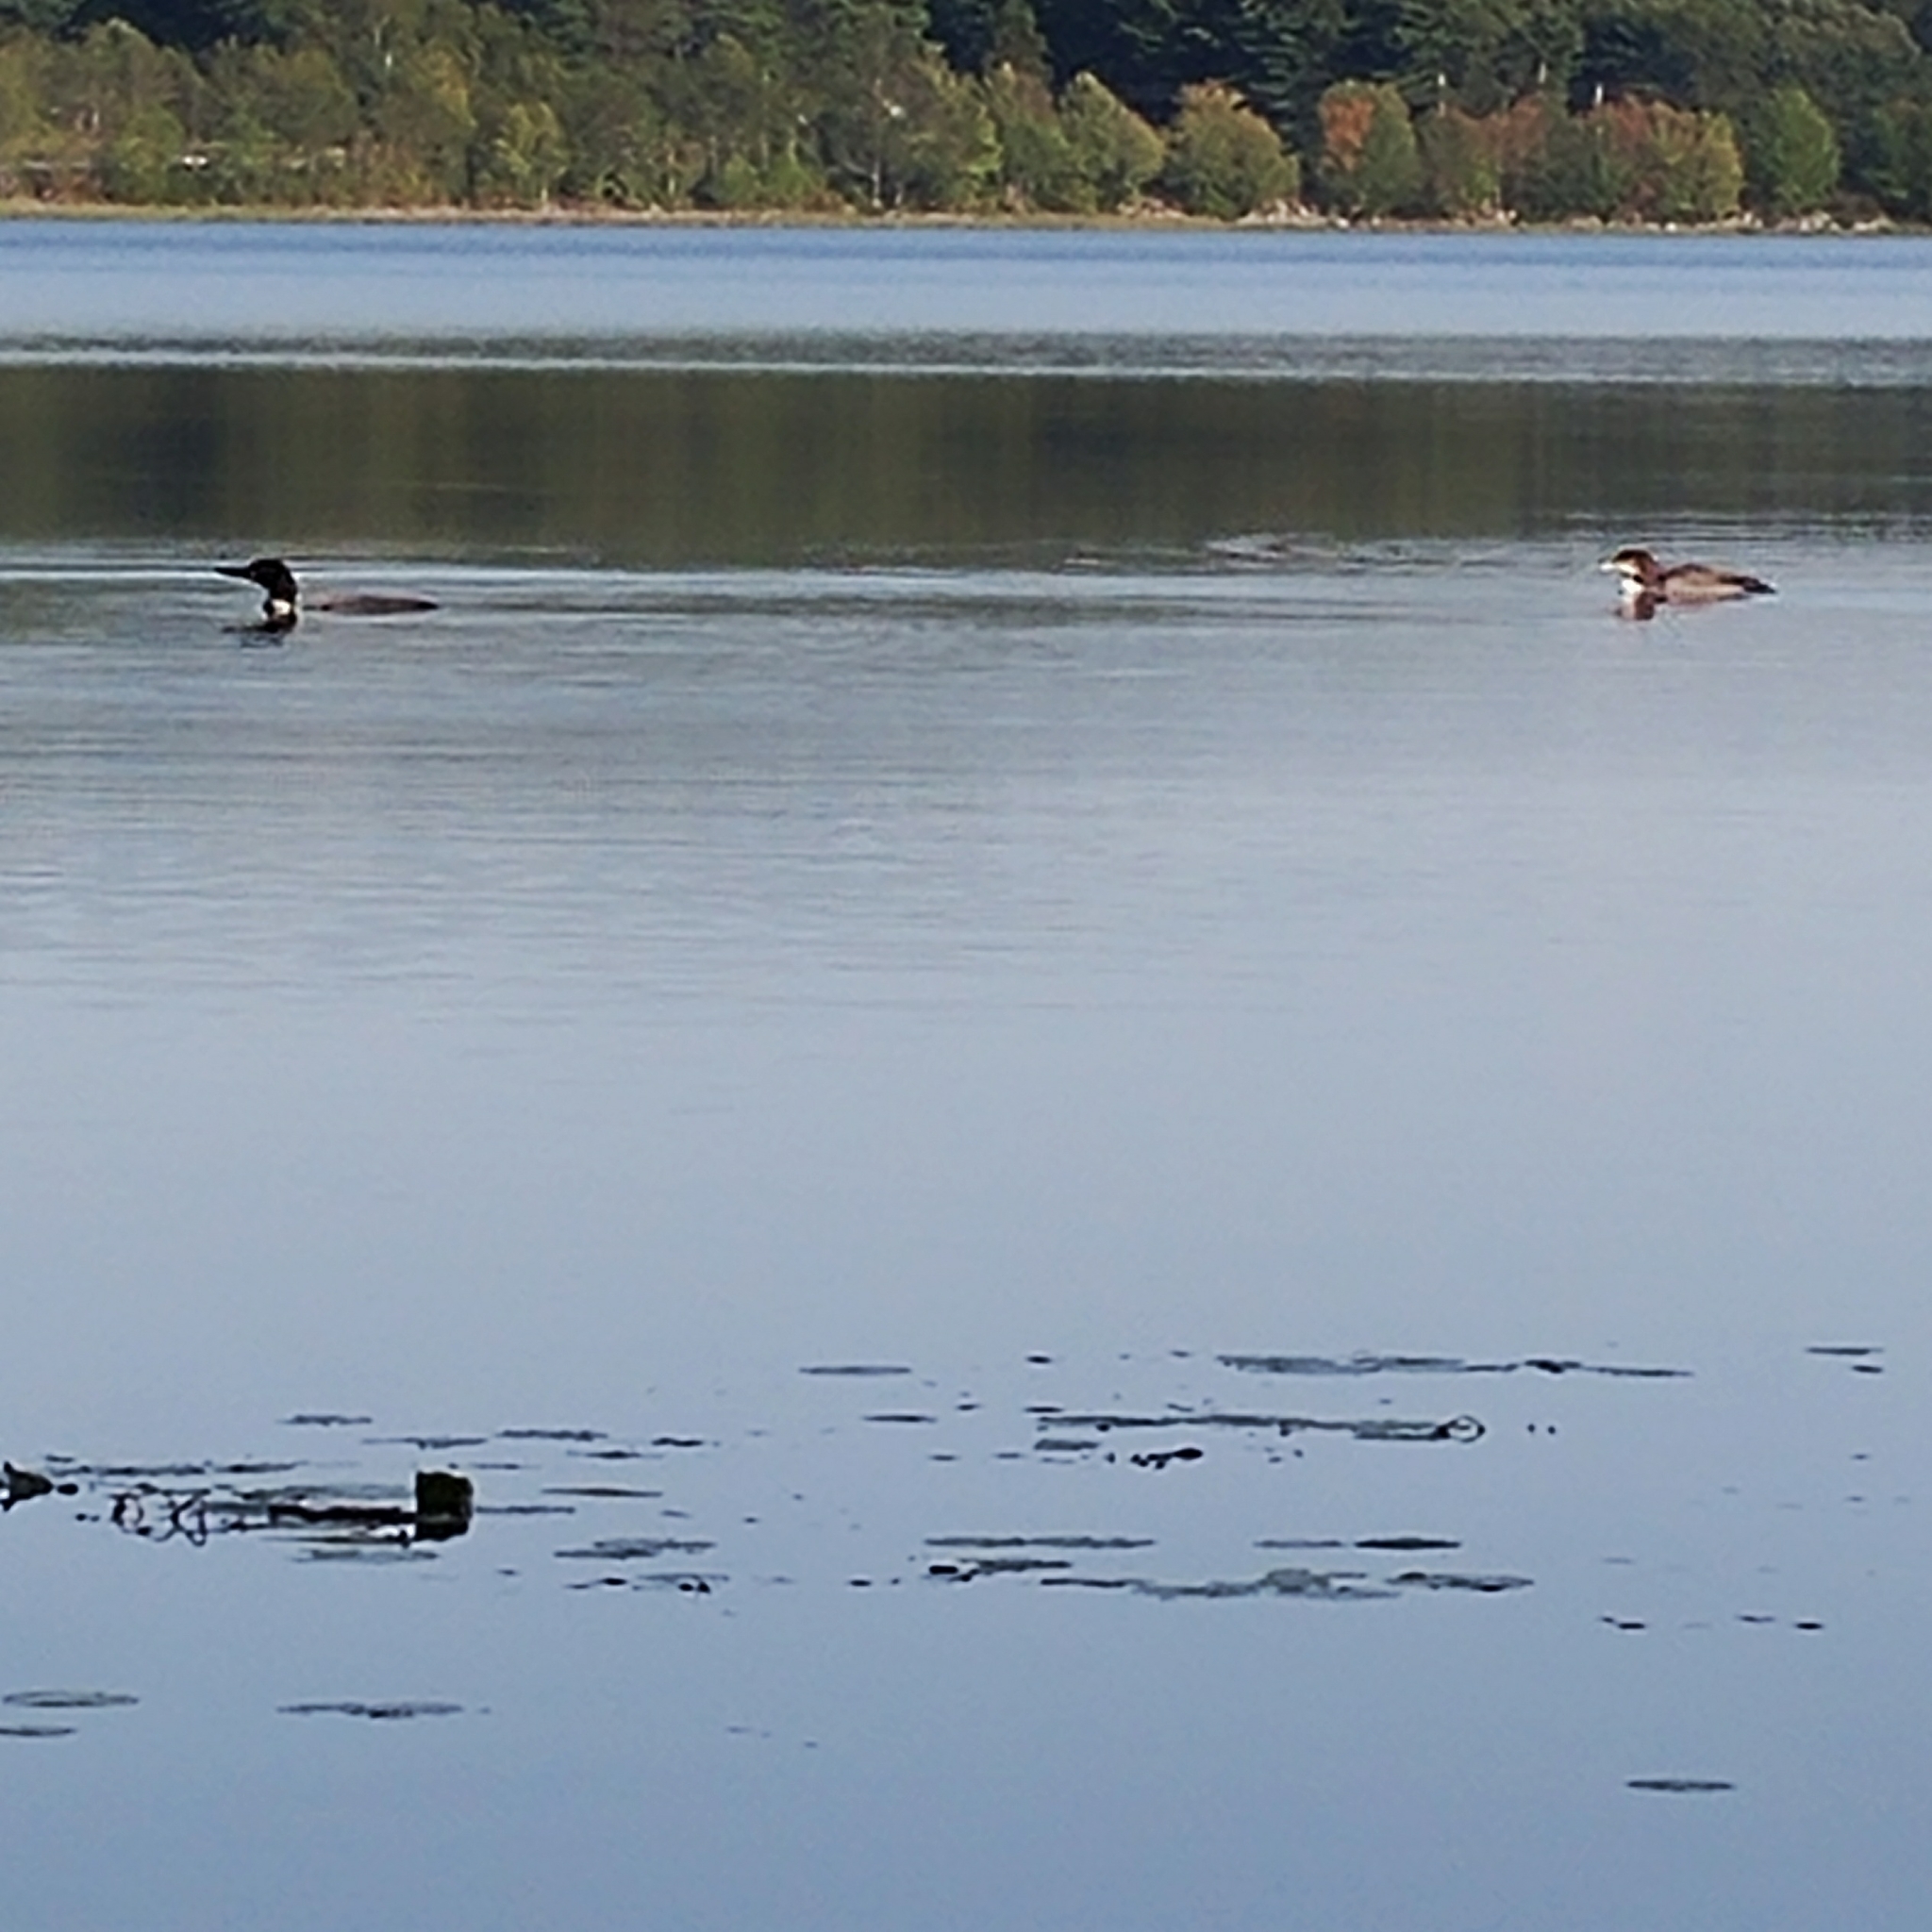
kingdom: Animalia
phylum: Chordata
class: Aves
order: Gaviiformes
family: Gaviidae
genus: Gavia
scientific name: Gavia immer
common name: Common loon
